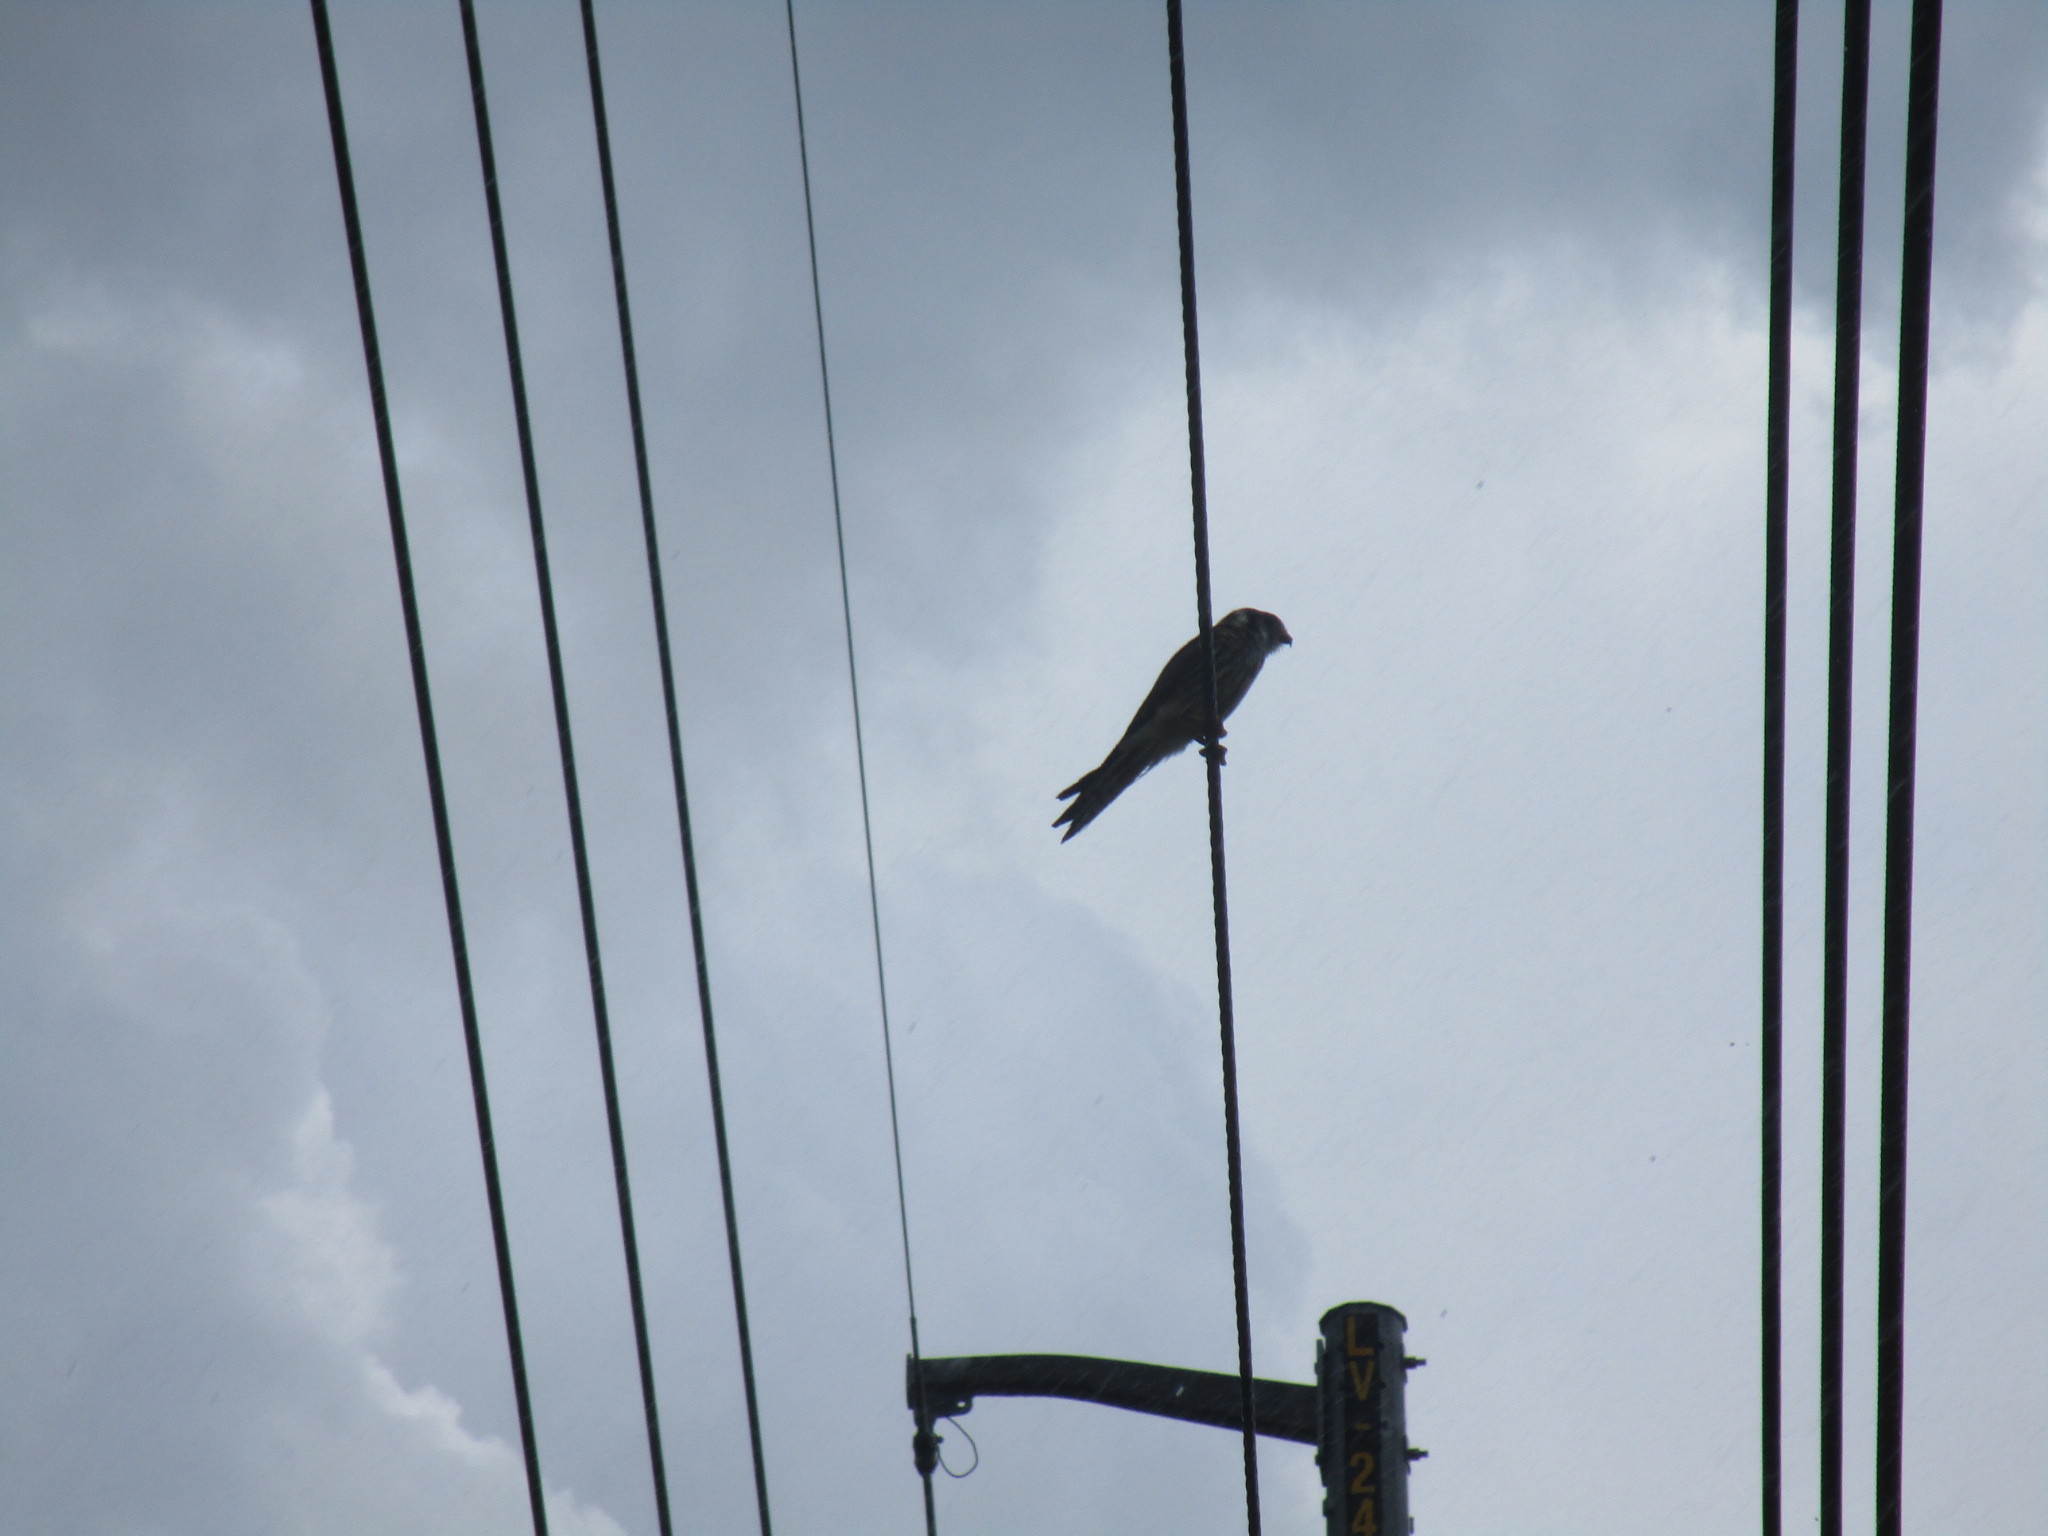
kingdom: Animalia
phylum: Chordata
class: Aves
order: Falconiformes
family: Falconidae
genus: Falco
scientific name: Falco sparverius
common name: American kestrel
